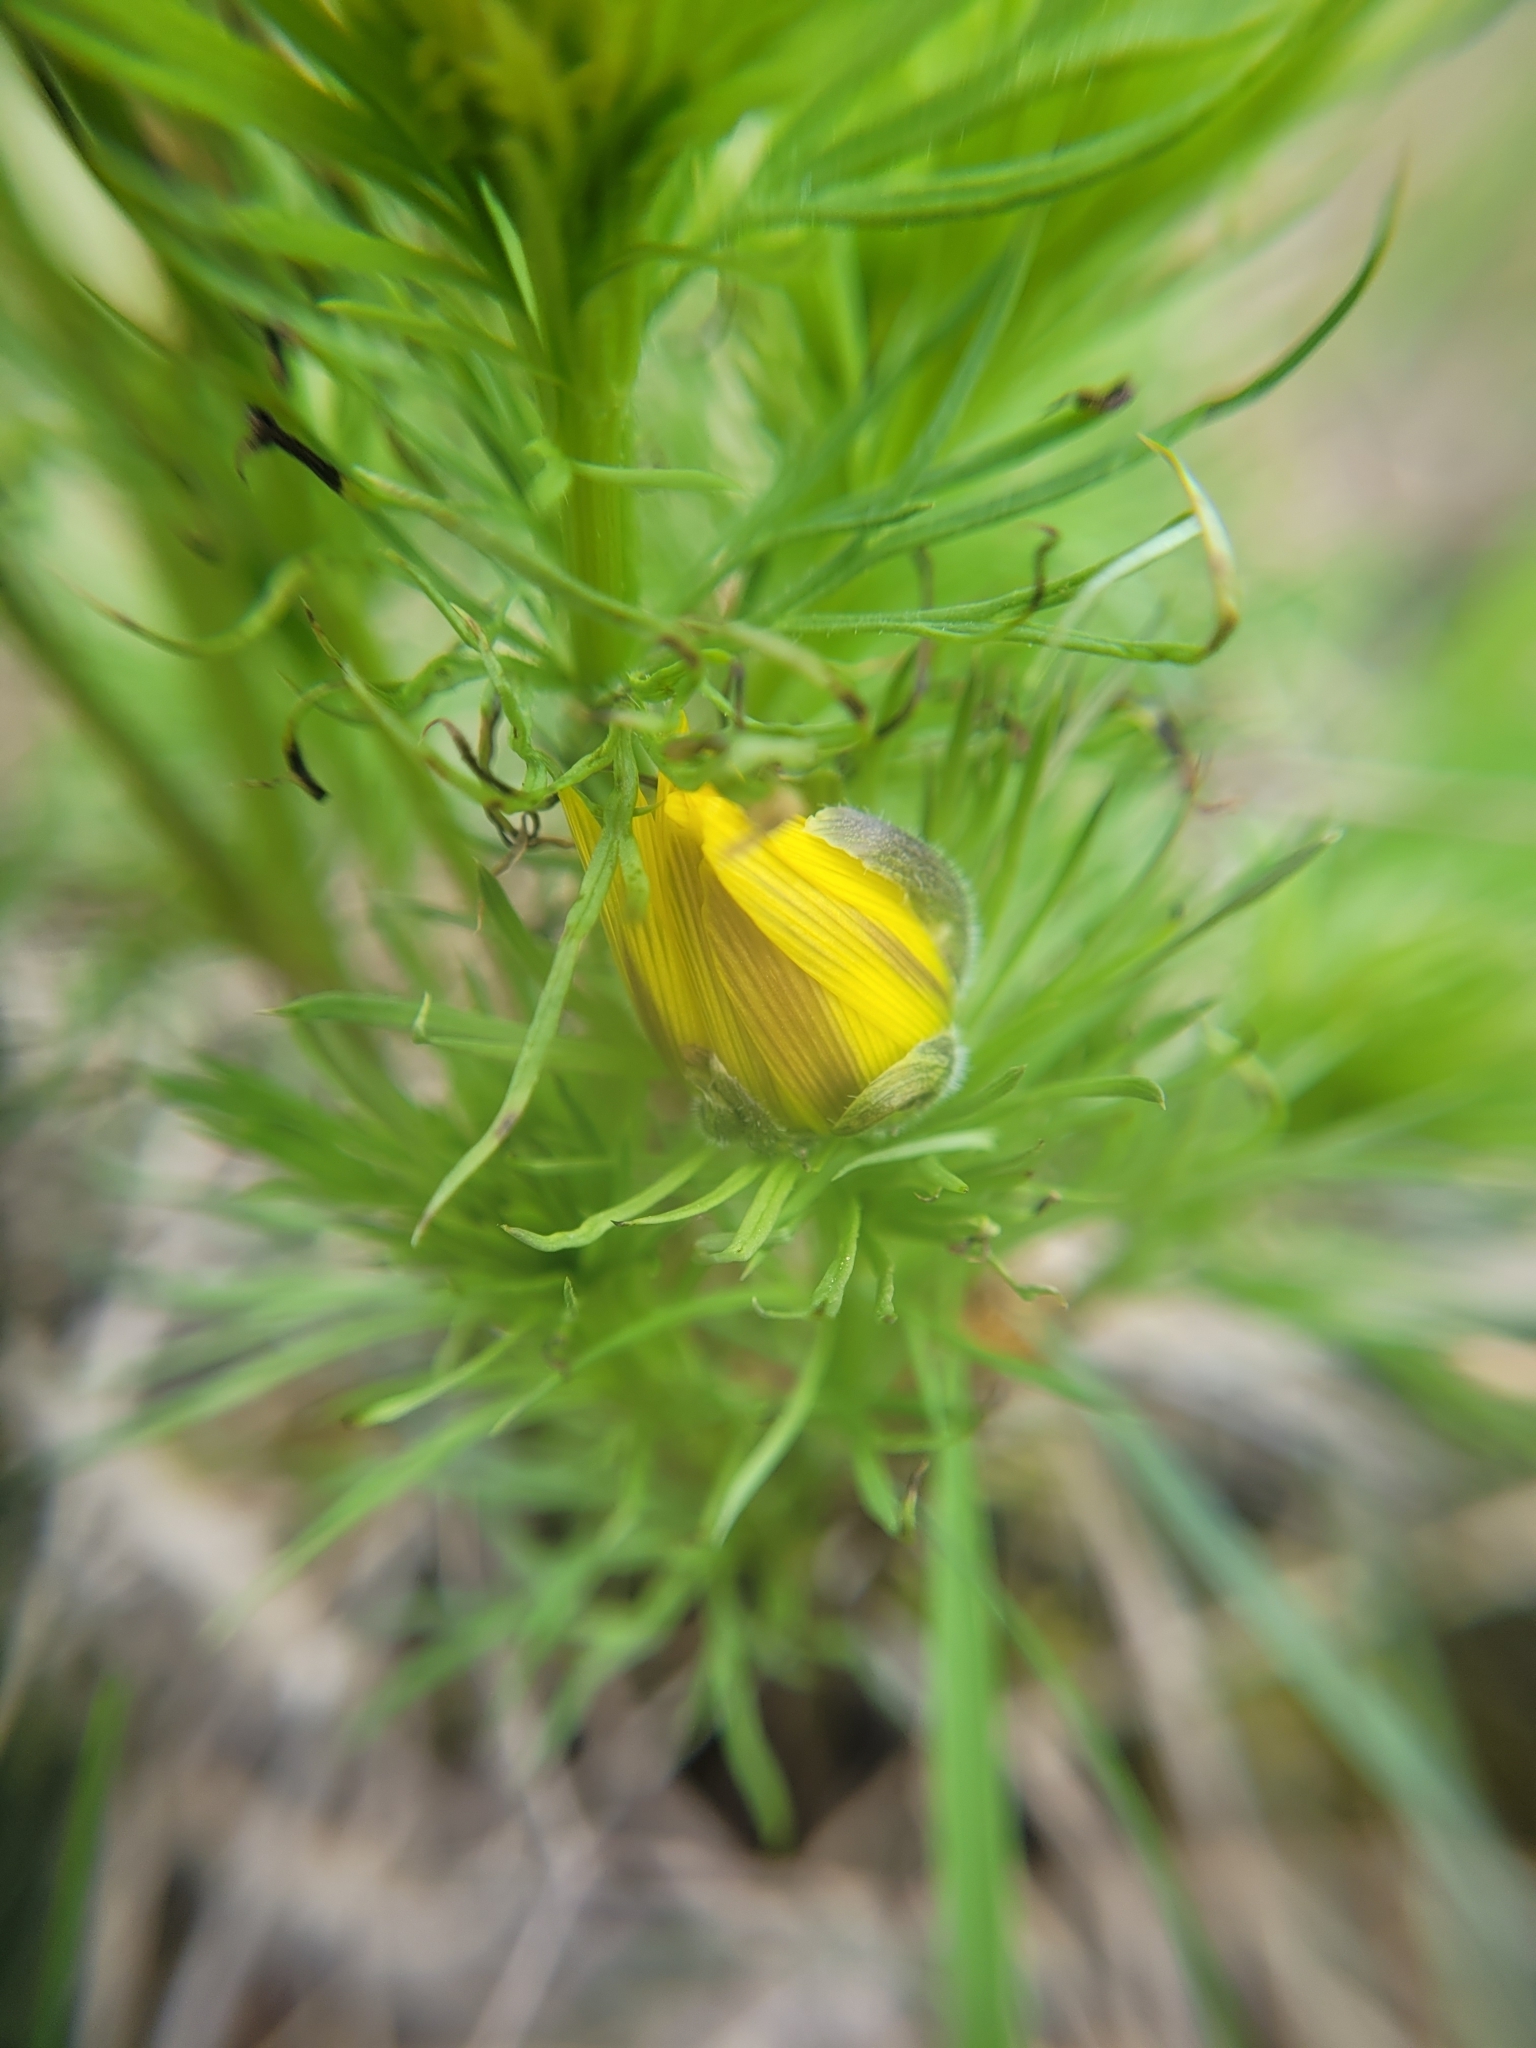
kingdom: Plantae
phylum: Tracheophyta
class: Magnoliopsida
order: Ranunculales
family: Ranunculaceae
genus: Adonis
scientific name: Adonis vernalis
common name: Yellow pheasants-eye
